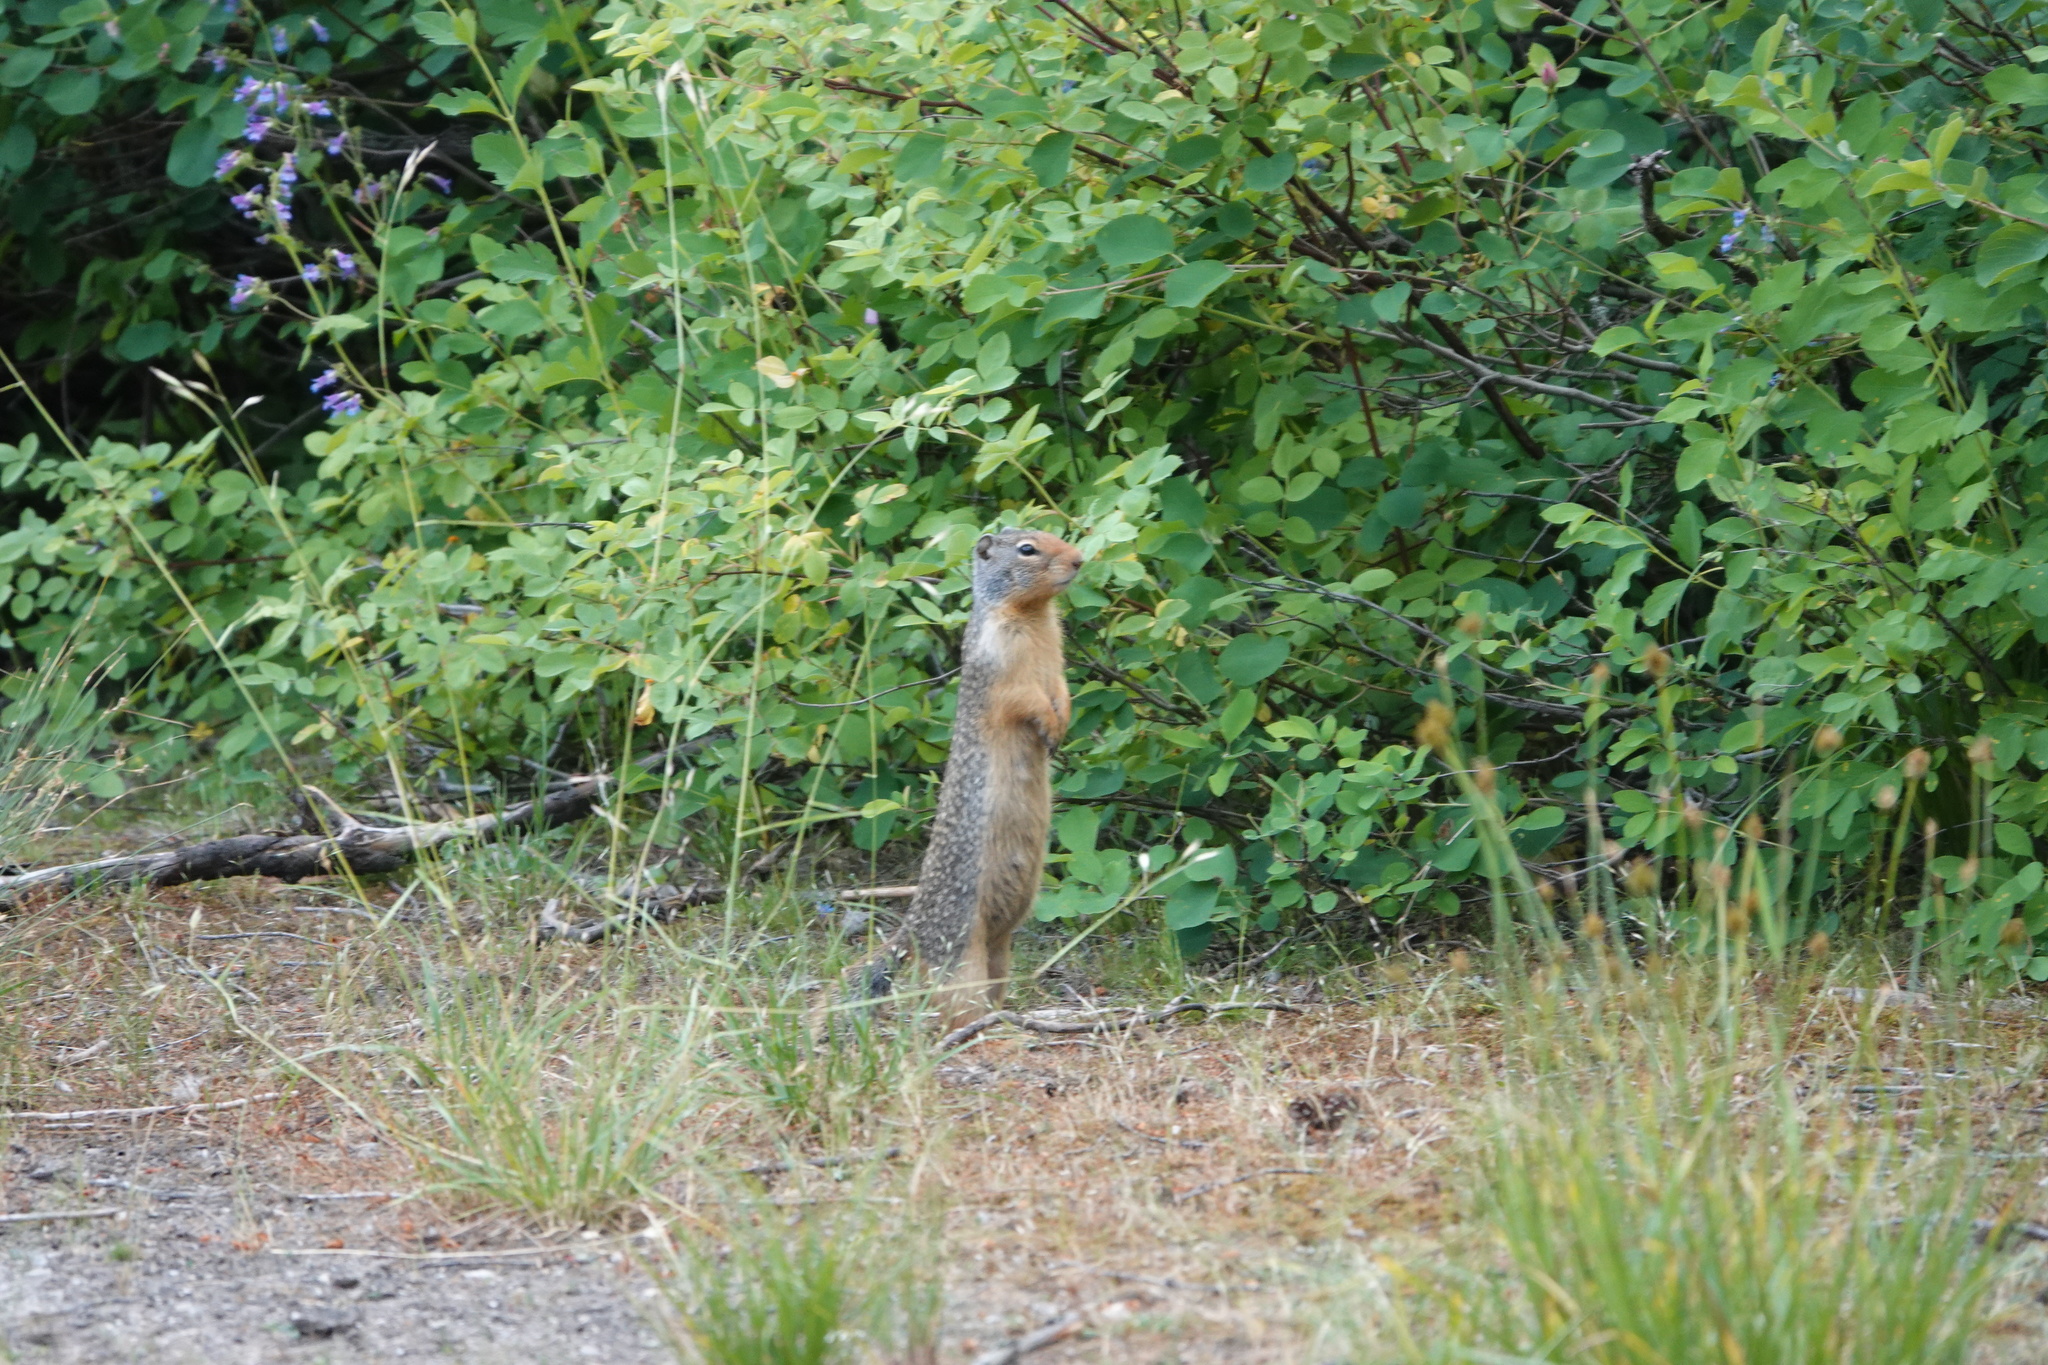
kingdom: Animalia
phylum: Chordata
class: Mammalia
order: Rodentia
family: Sciuridae
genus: Urocitellus
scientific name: Urocitellus columbianus
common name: Columbian ground squirrel
